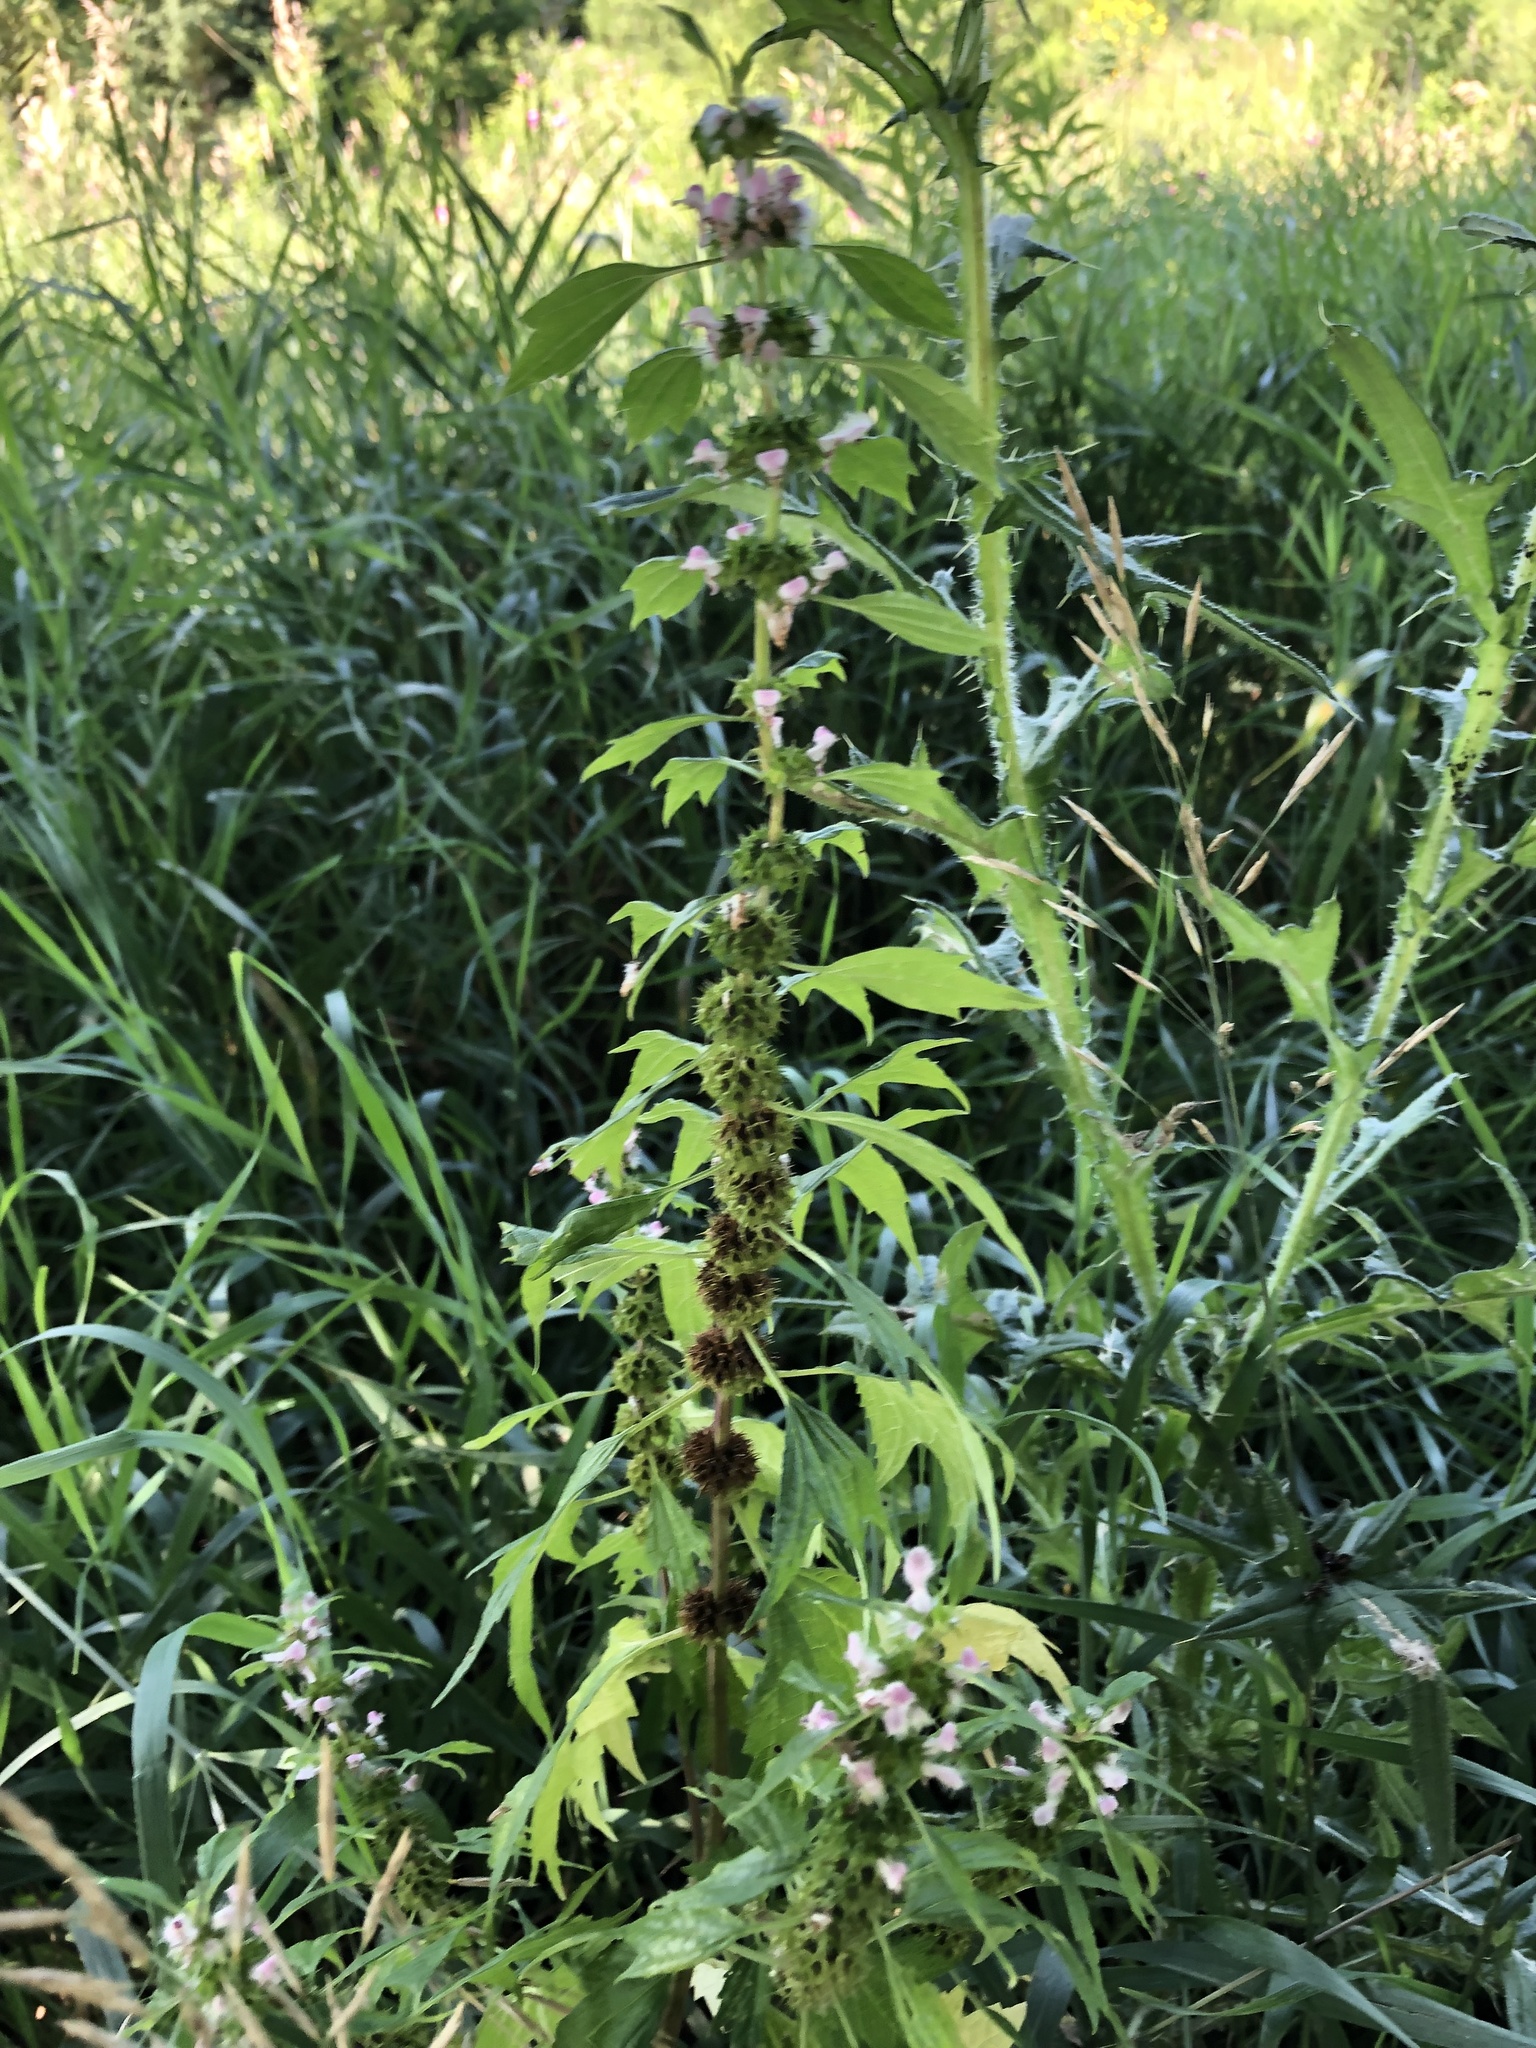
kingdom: Plantae
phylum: Tracheophyta
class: Magnoliopsida
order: Lamiales
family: Lamiaceae
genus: Leonurus
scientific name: Leonurus cardiaca
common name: Motherwort
